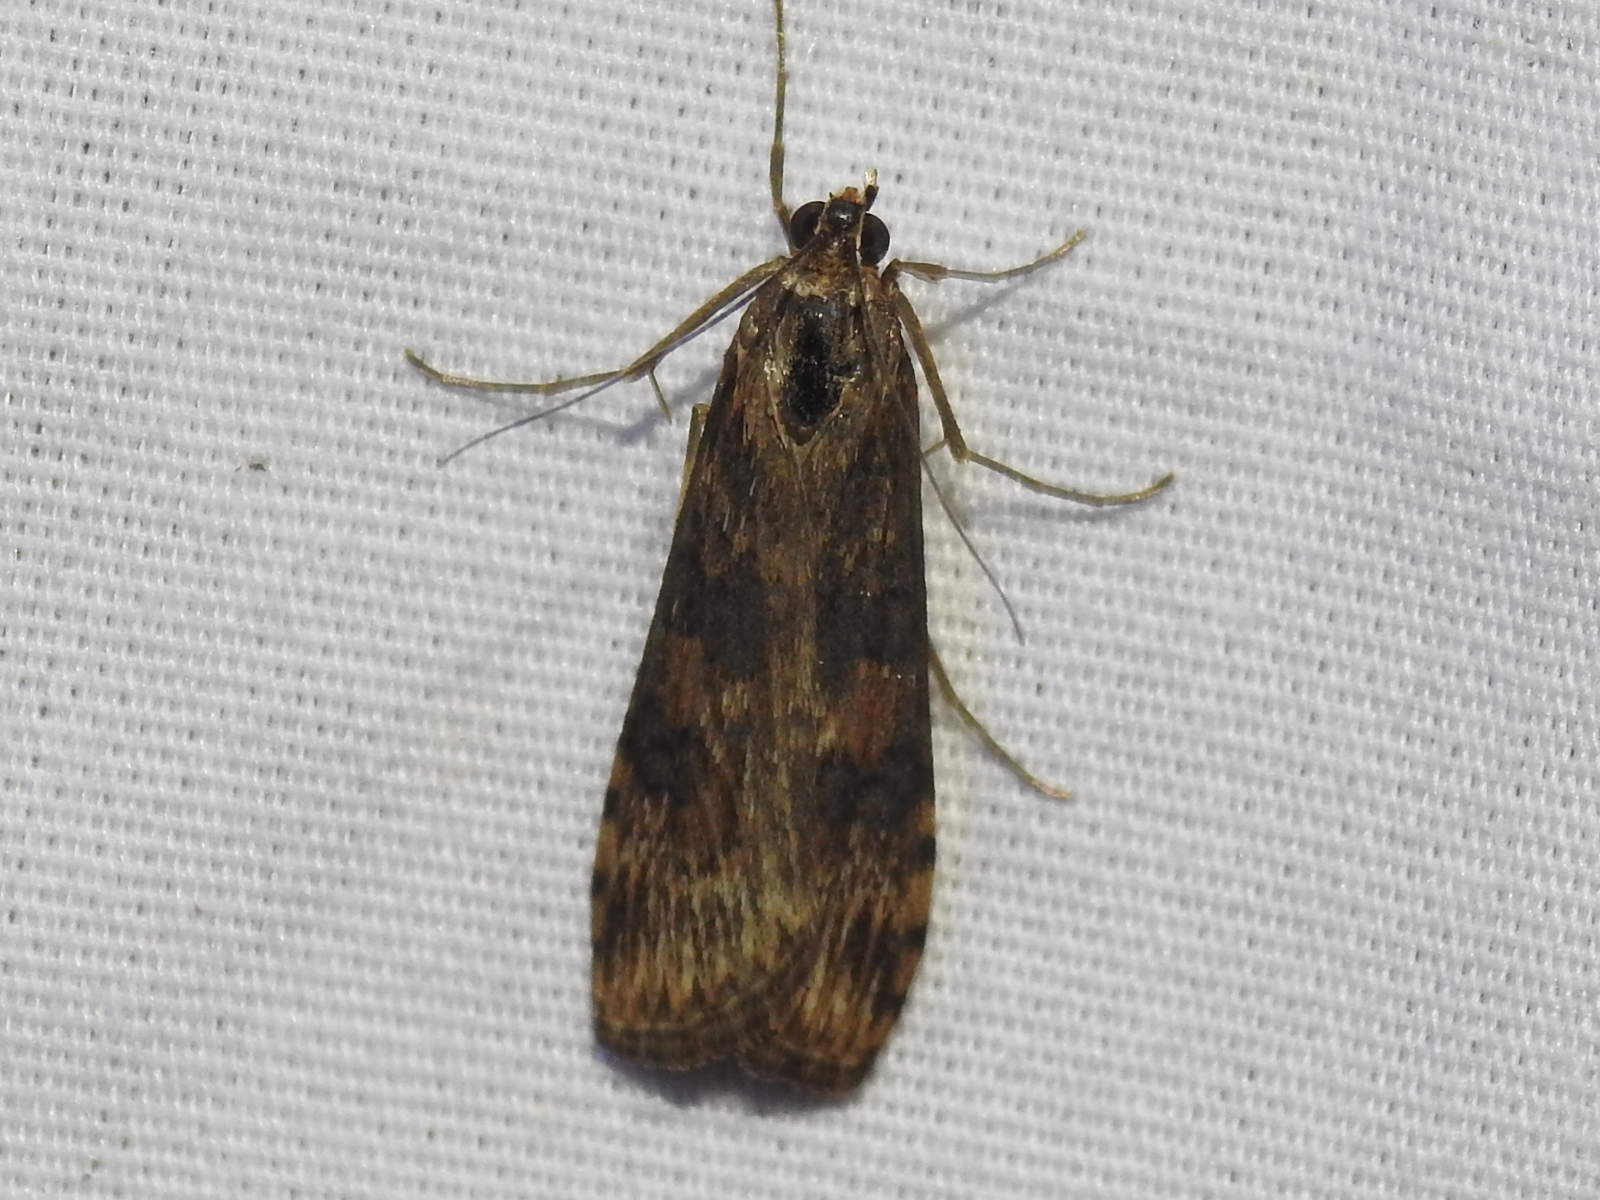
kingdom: Animalia
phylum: Arthropoda
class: Insecta
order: Lepidoptera
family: Crambidae
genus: Nomophila
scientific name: Nomophila nearctica
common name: American rush veneer
